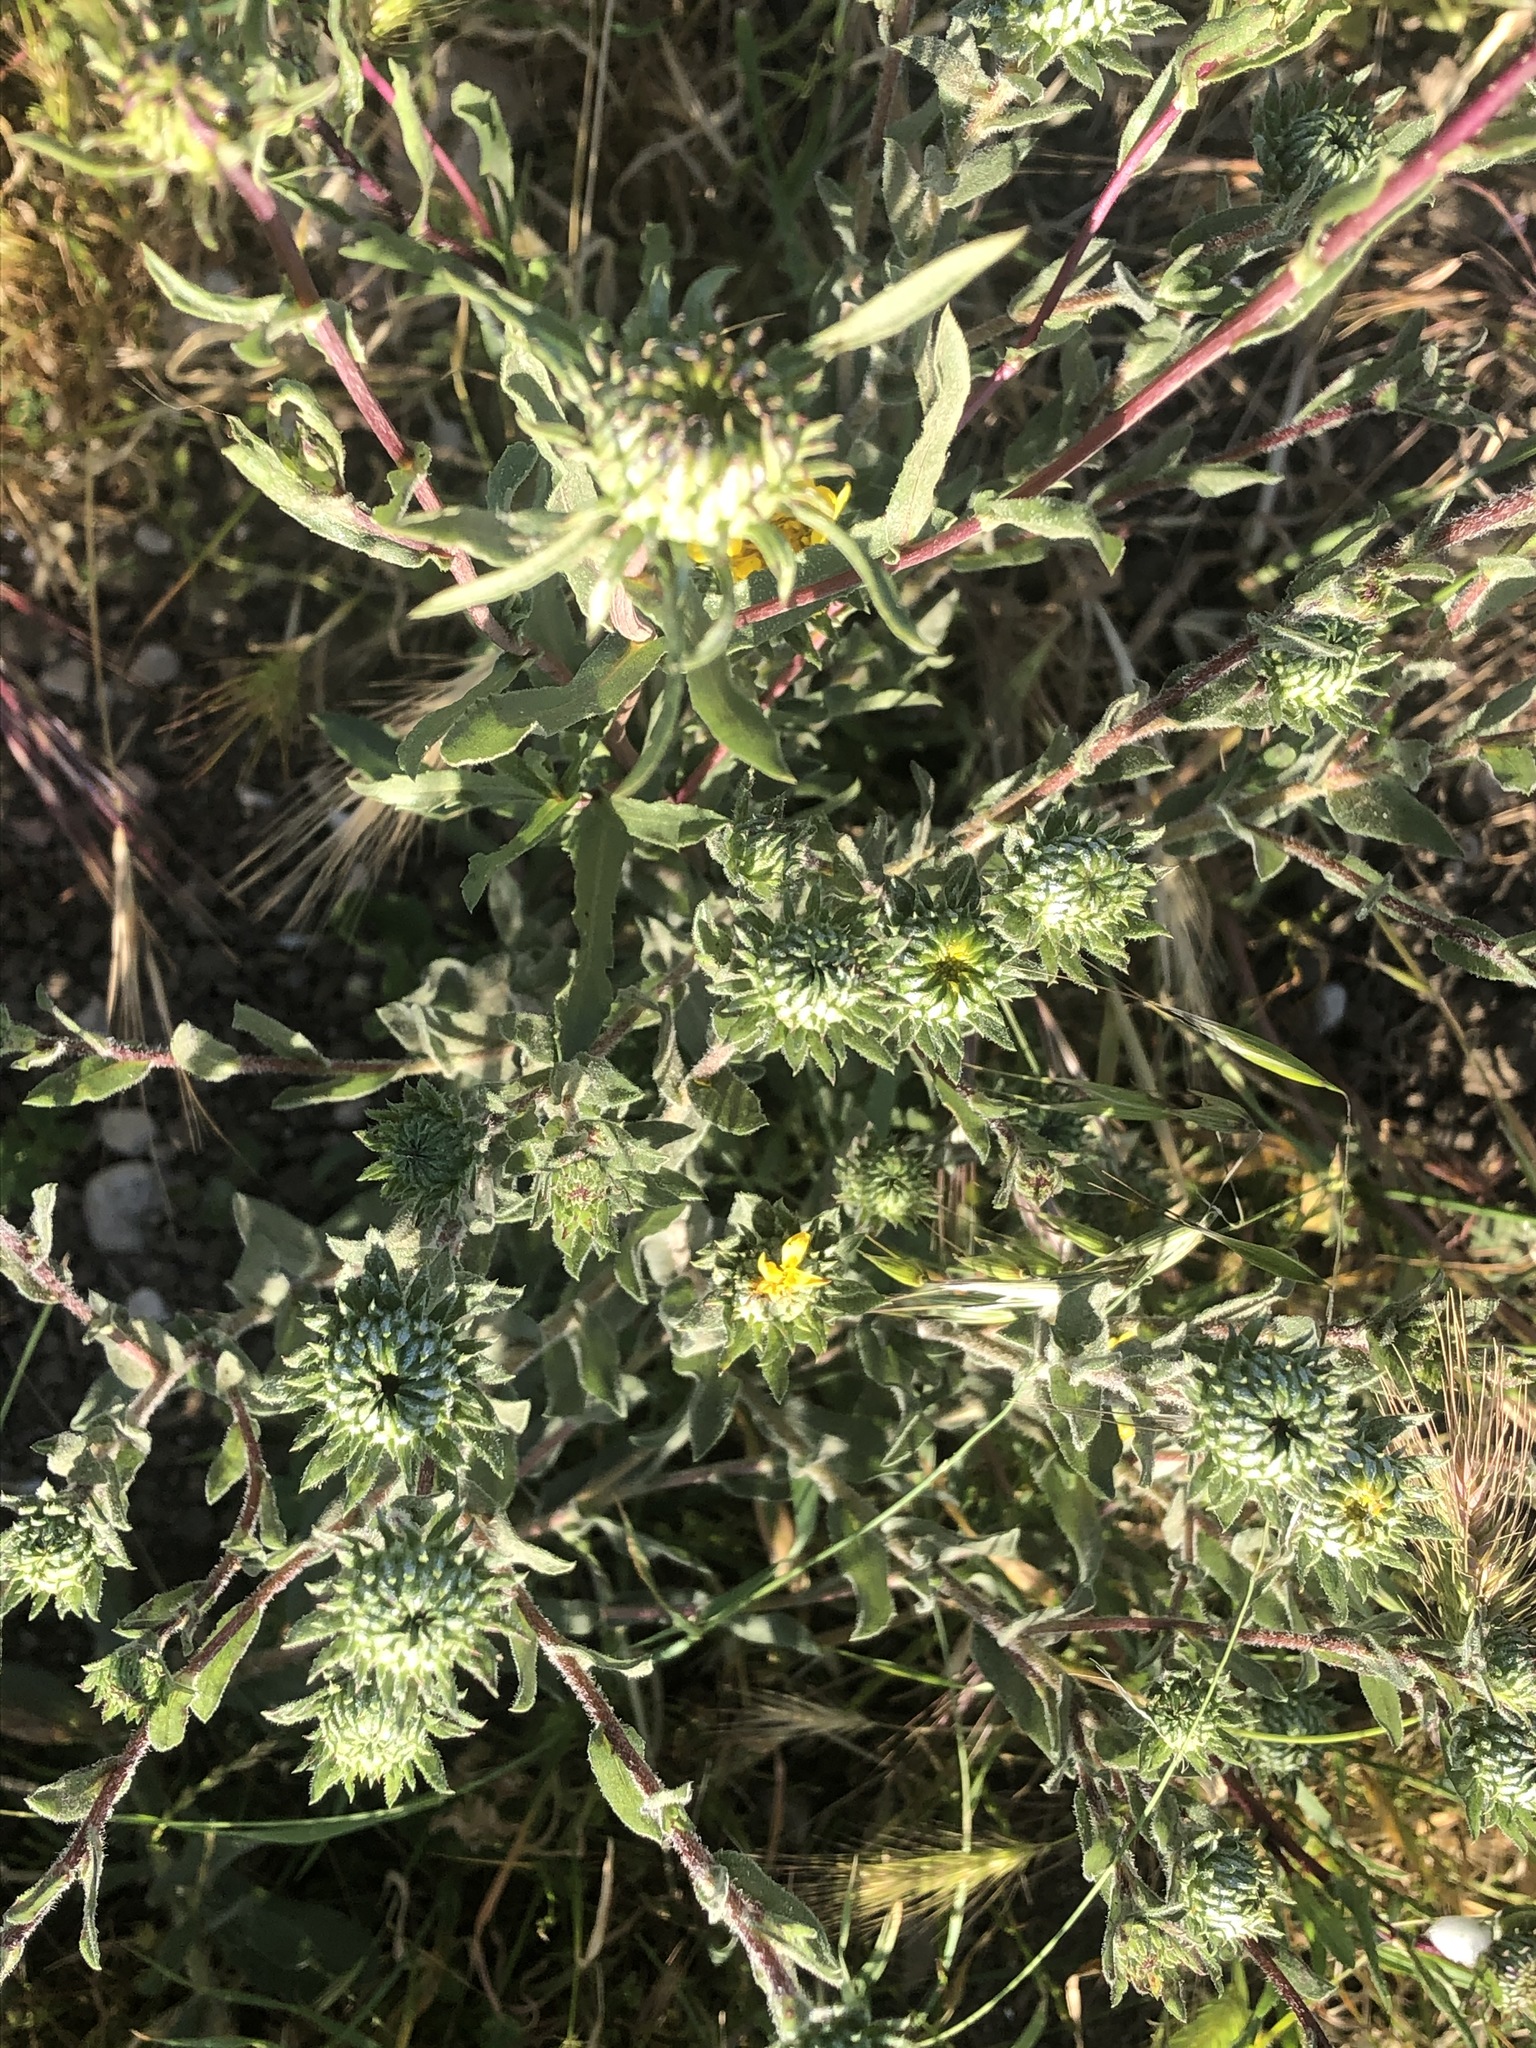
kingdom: Plantae
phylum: Tracheophyta
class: Magnoliopsida
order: Asterales
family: Asteraceae
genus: Grindelia
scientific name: Grindelia hirsutula
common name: Hairy gumweed
